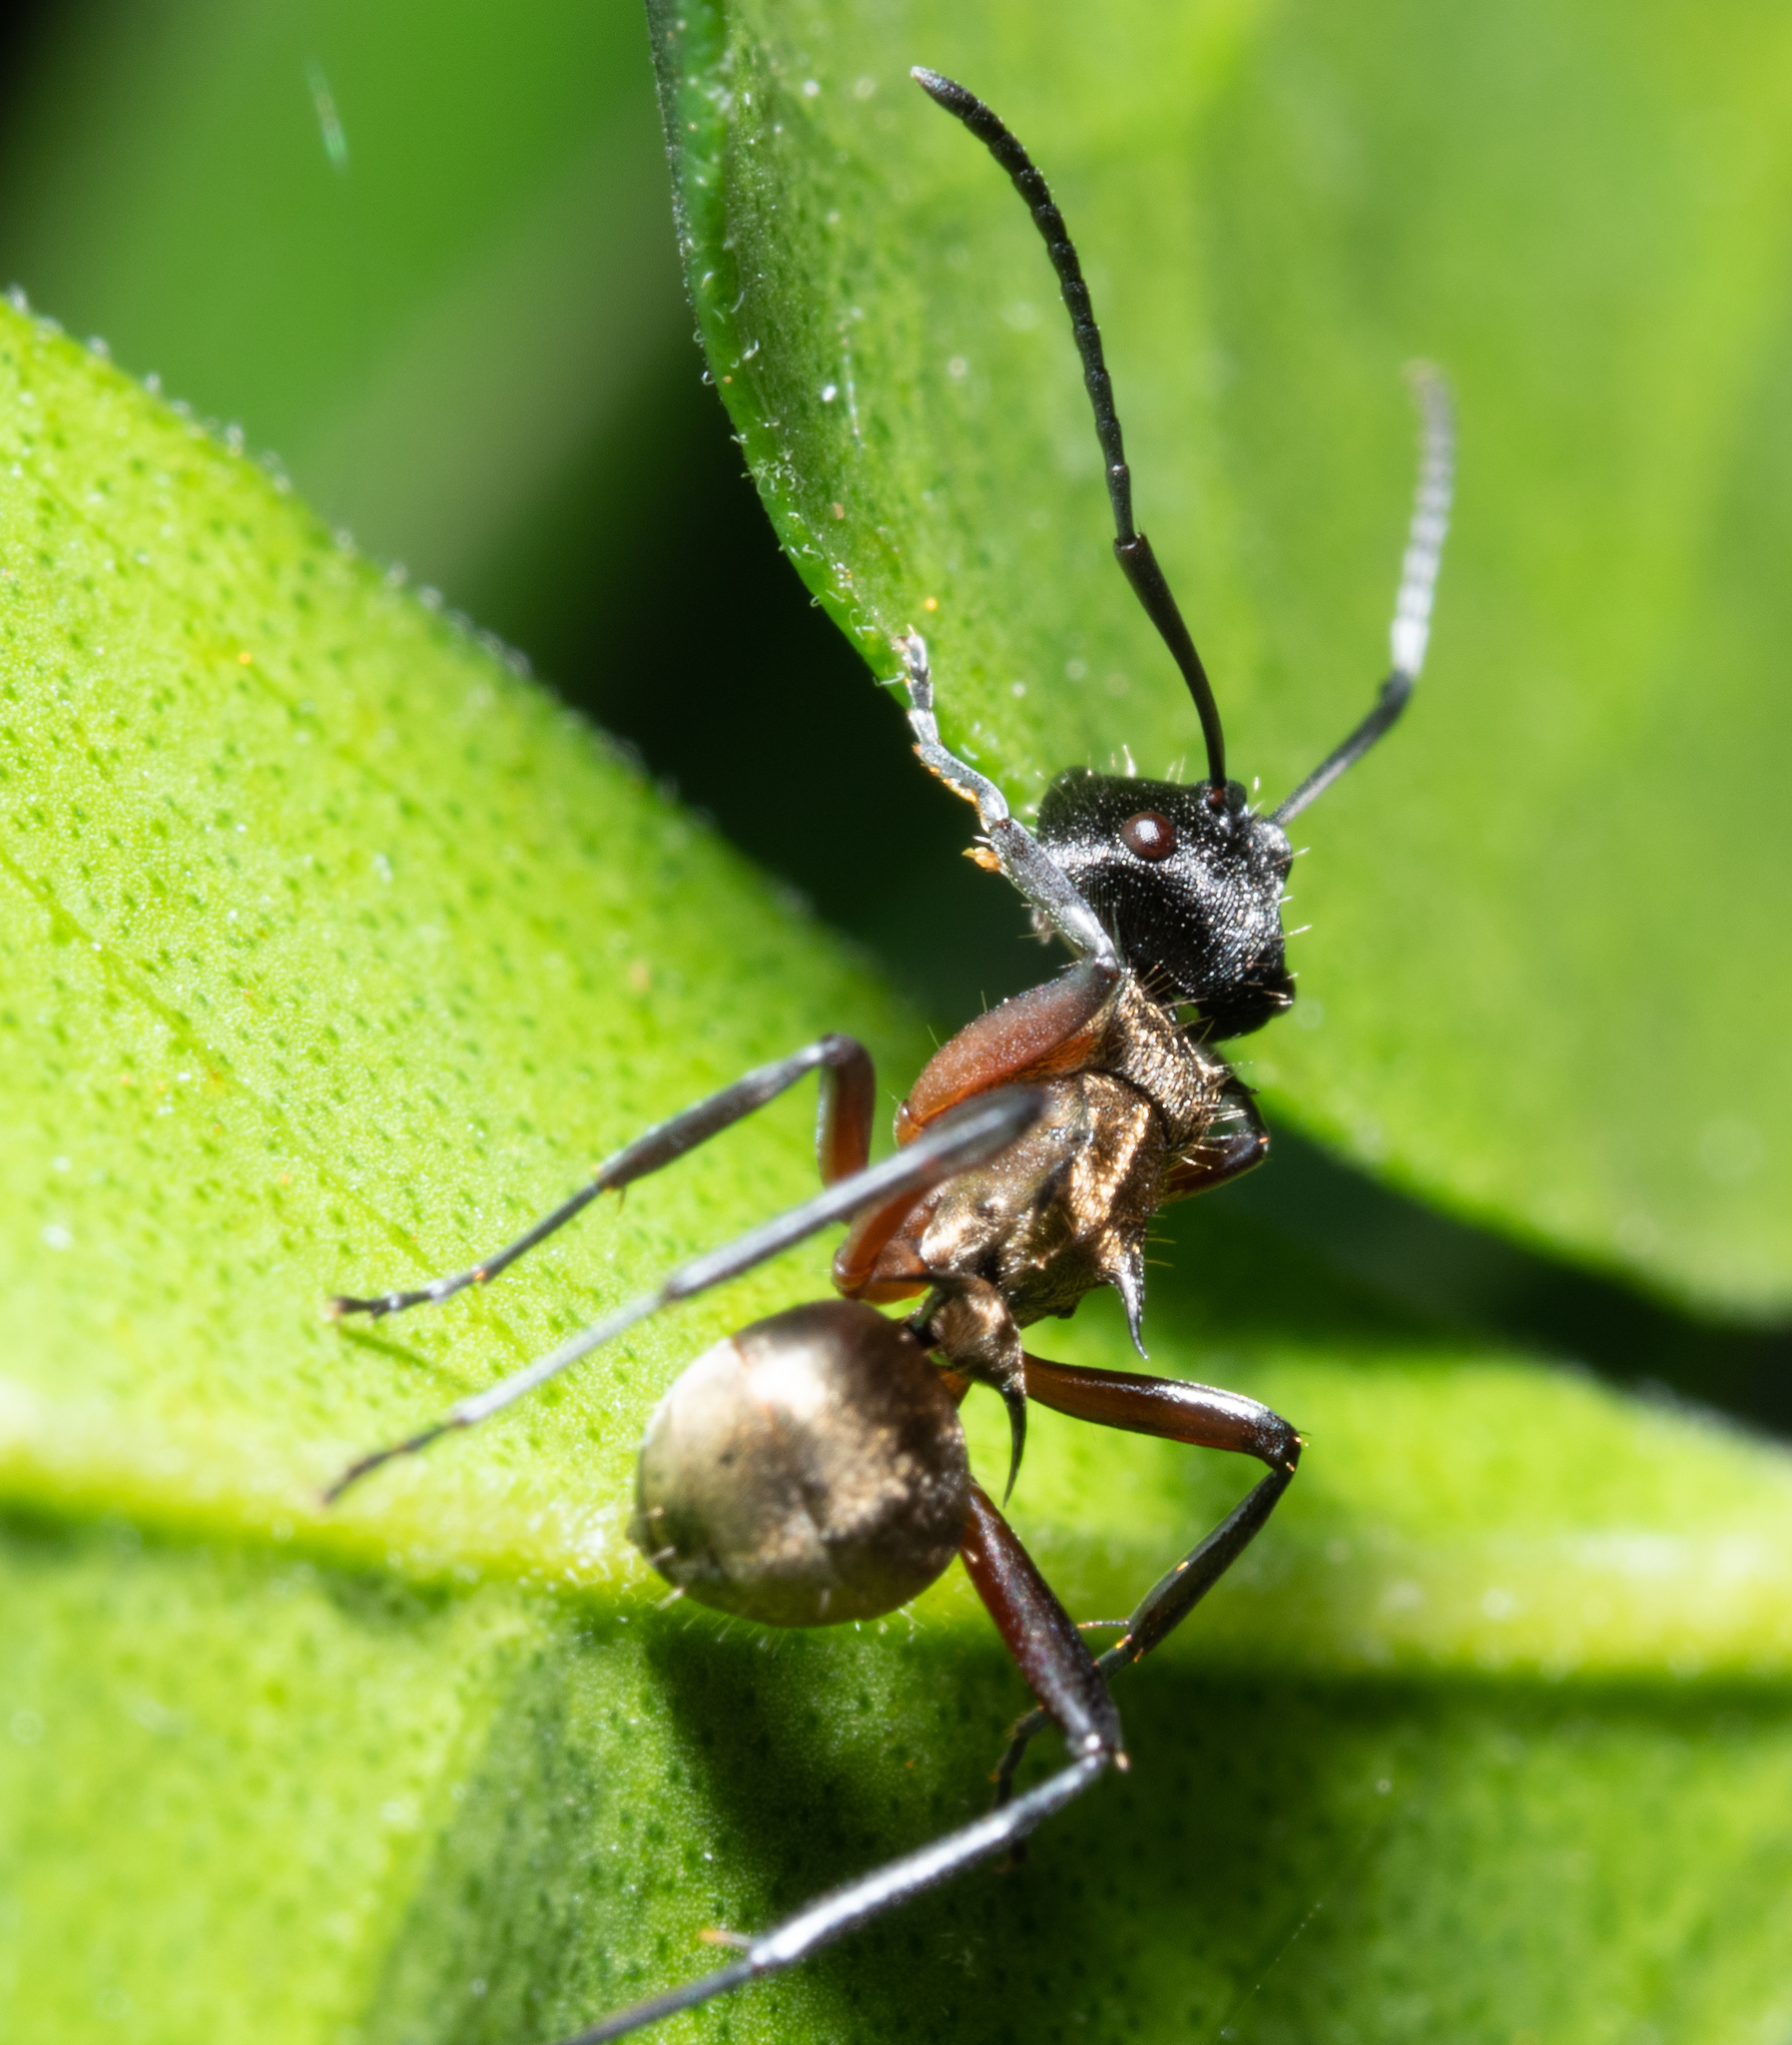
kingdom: Animalia
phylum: Arthropoda
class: Insecta
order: Hymenoptera
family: Formicidae
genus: Polyrhachis
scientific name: Polyrhachis rufifemur
